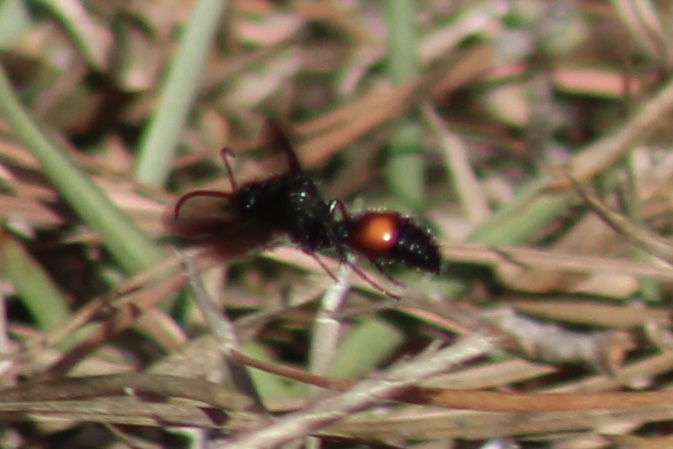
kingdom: Animalia
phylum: Arthropoda
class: Insecta
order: Hymenoptera
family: Mutillidae
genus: Dasymutilla
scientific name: Dasymutilla
